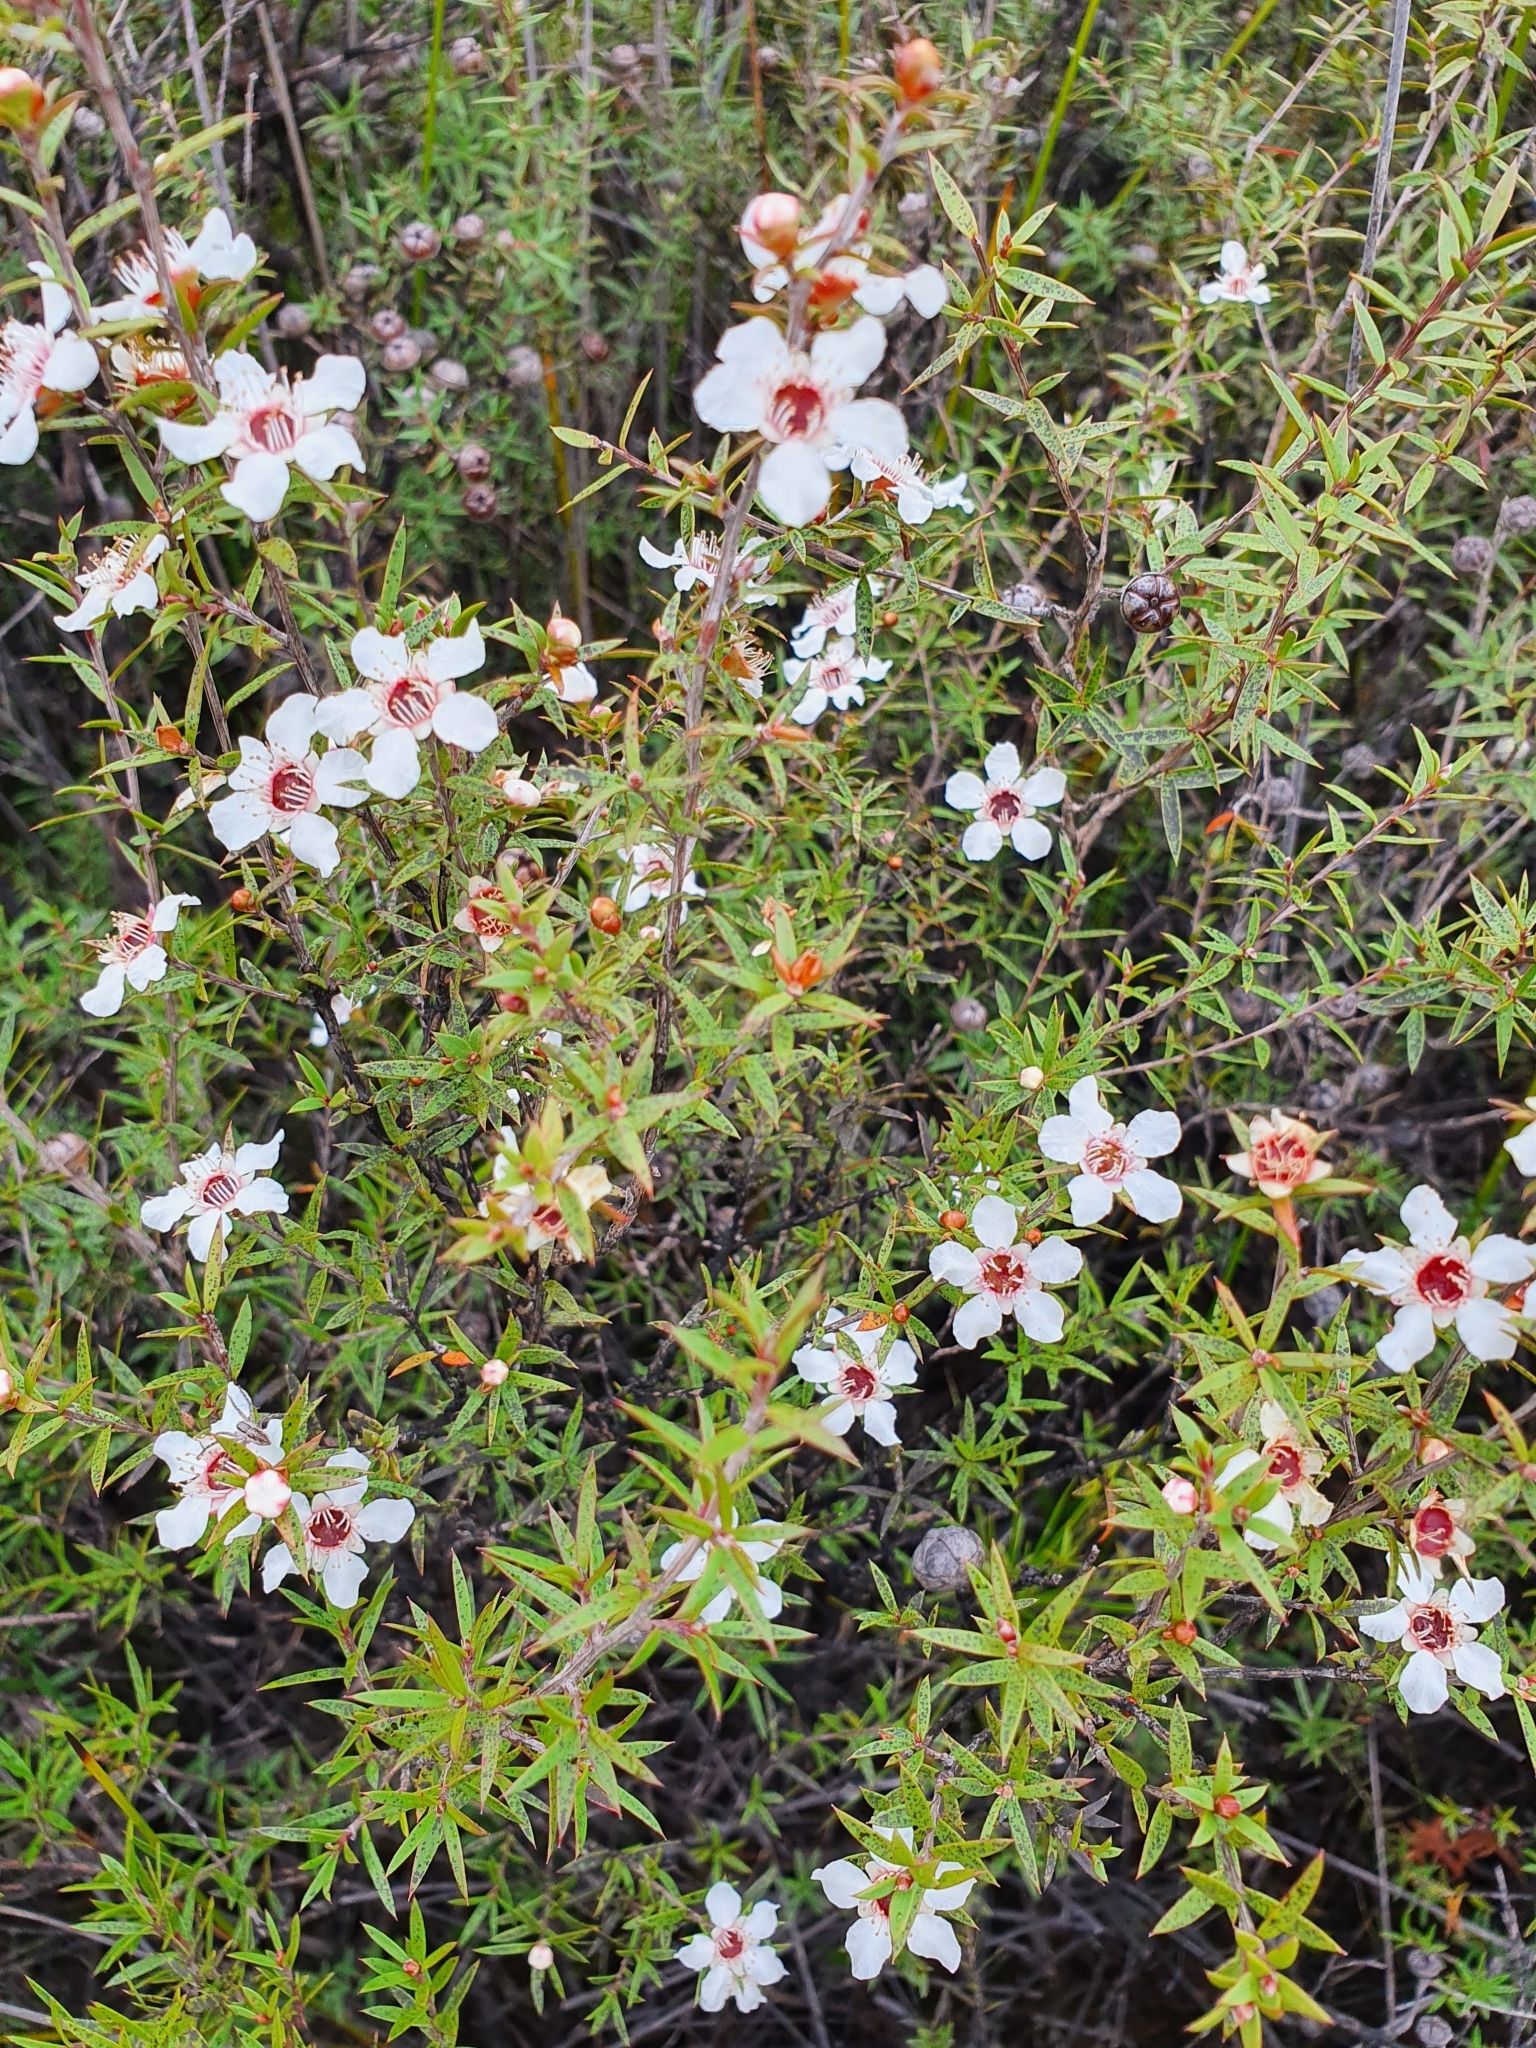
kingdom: Plantae
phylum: Tracheophyta
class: Magnoliopsida
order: Myrtales
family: Myrtaceae
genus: Leptospermum
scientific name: Leptospermum scoparium
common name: Broom tea-tree
